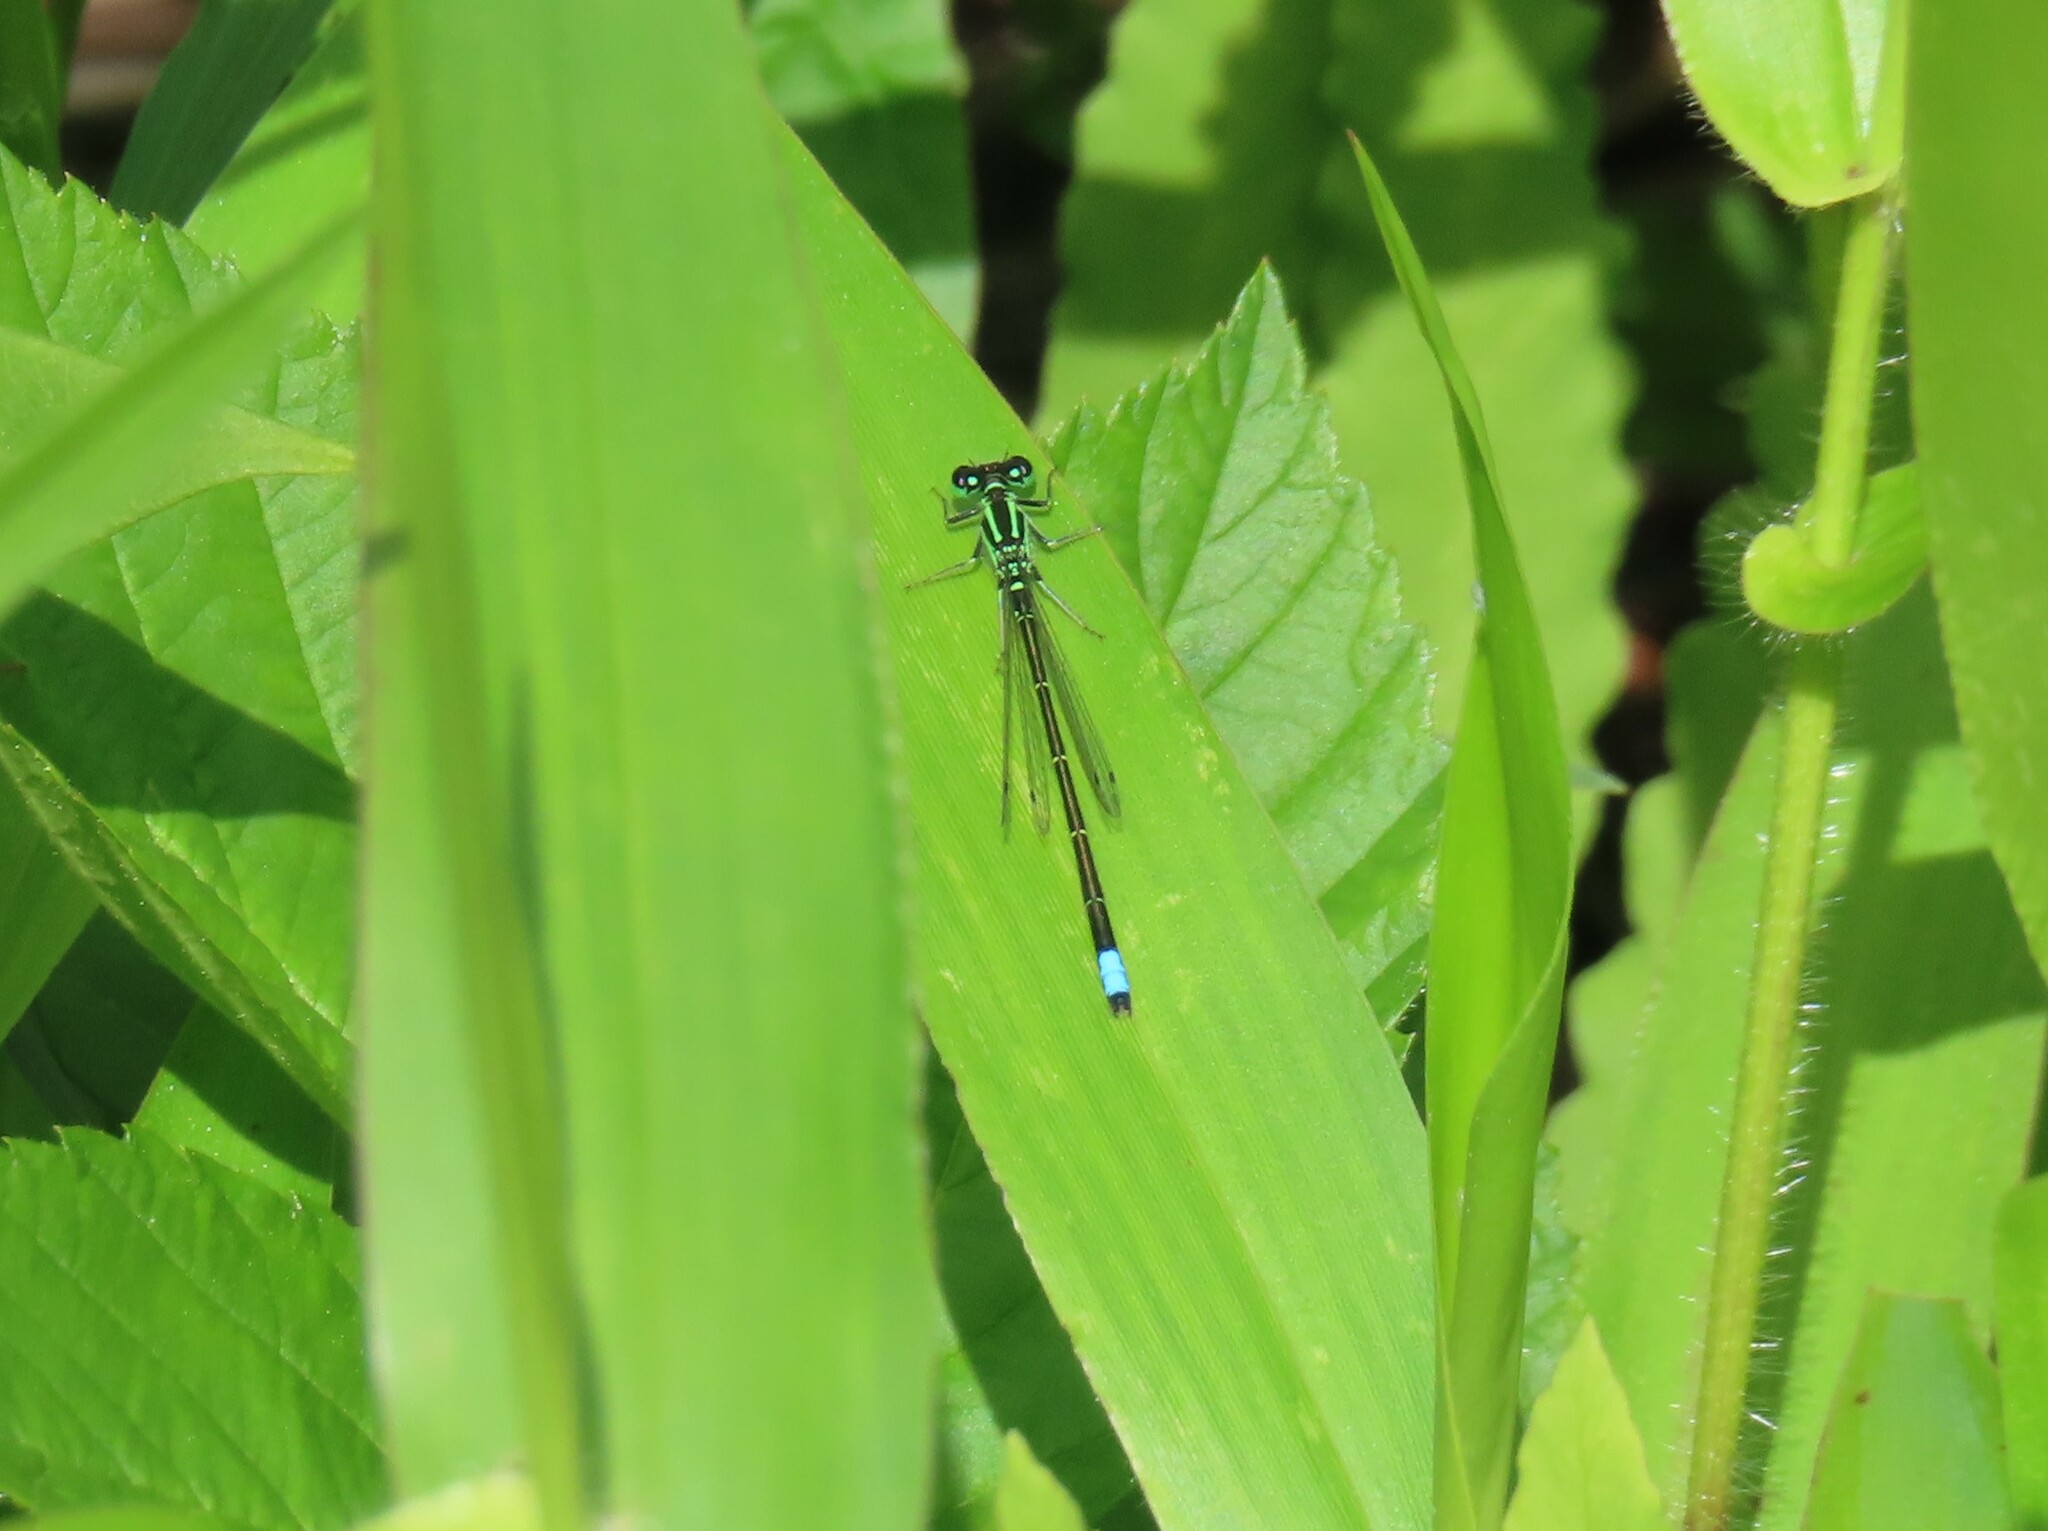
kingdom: Animalia
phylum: Arthropoda
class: Insecta
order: Odonata
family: Coenagrionidae
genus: Ischnura
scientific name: Ischnura verticalis
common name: Eastern forktail
